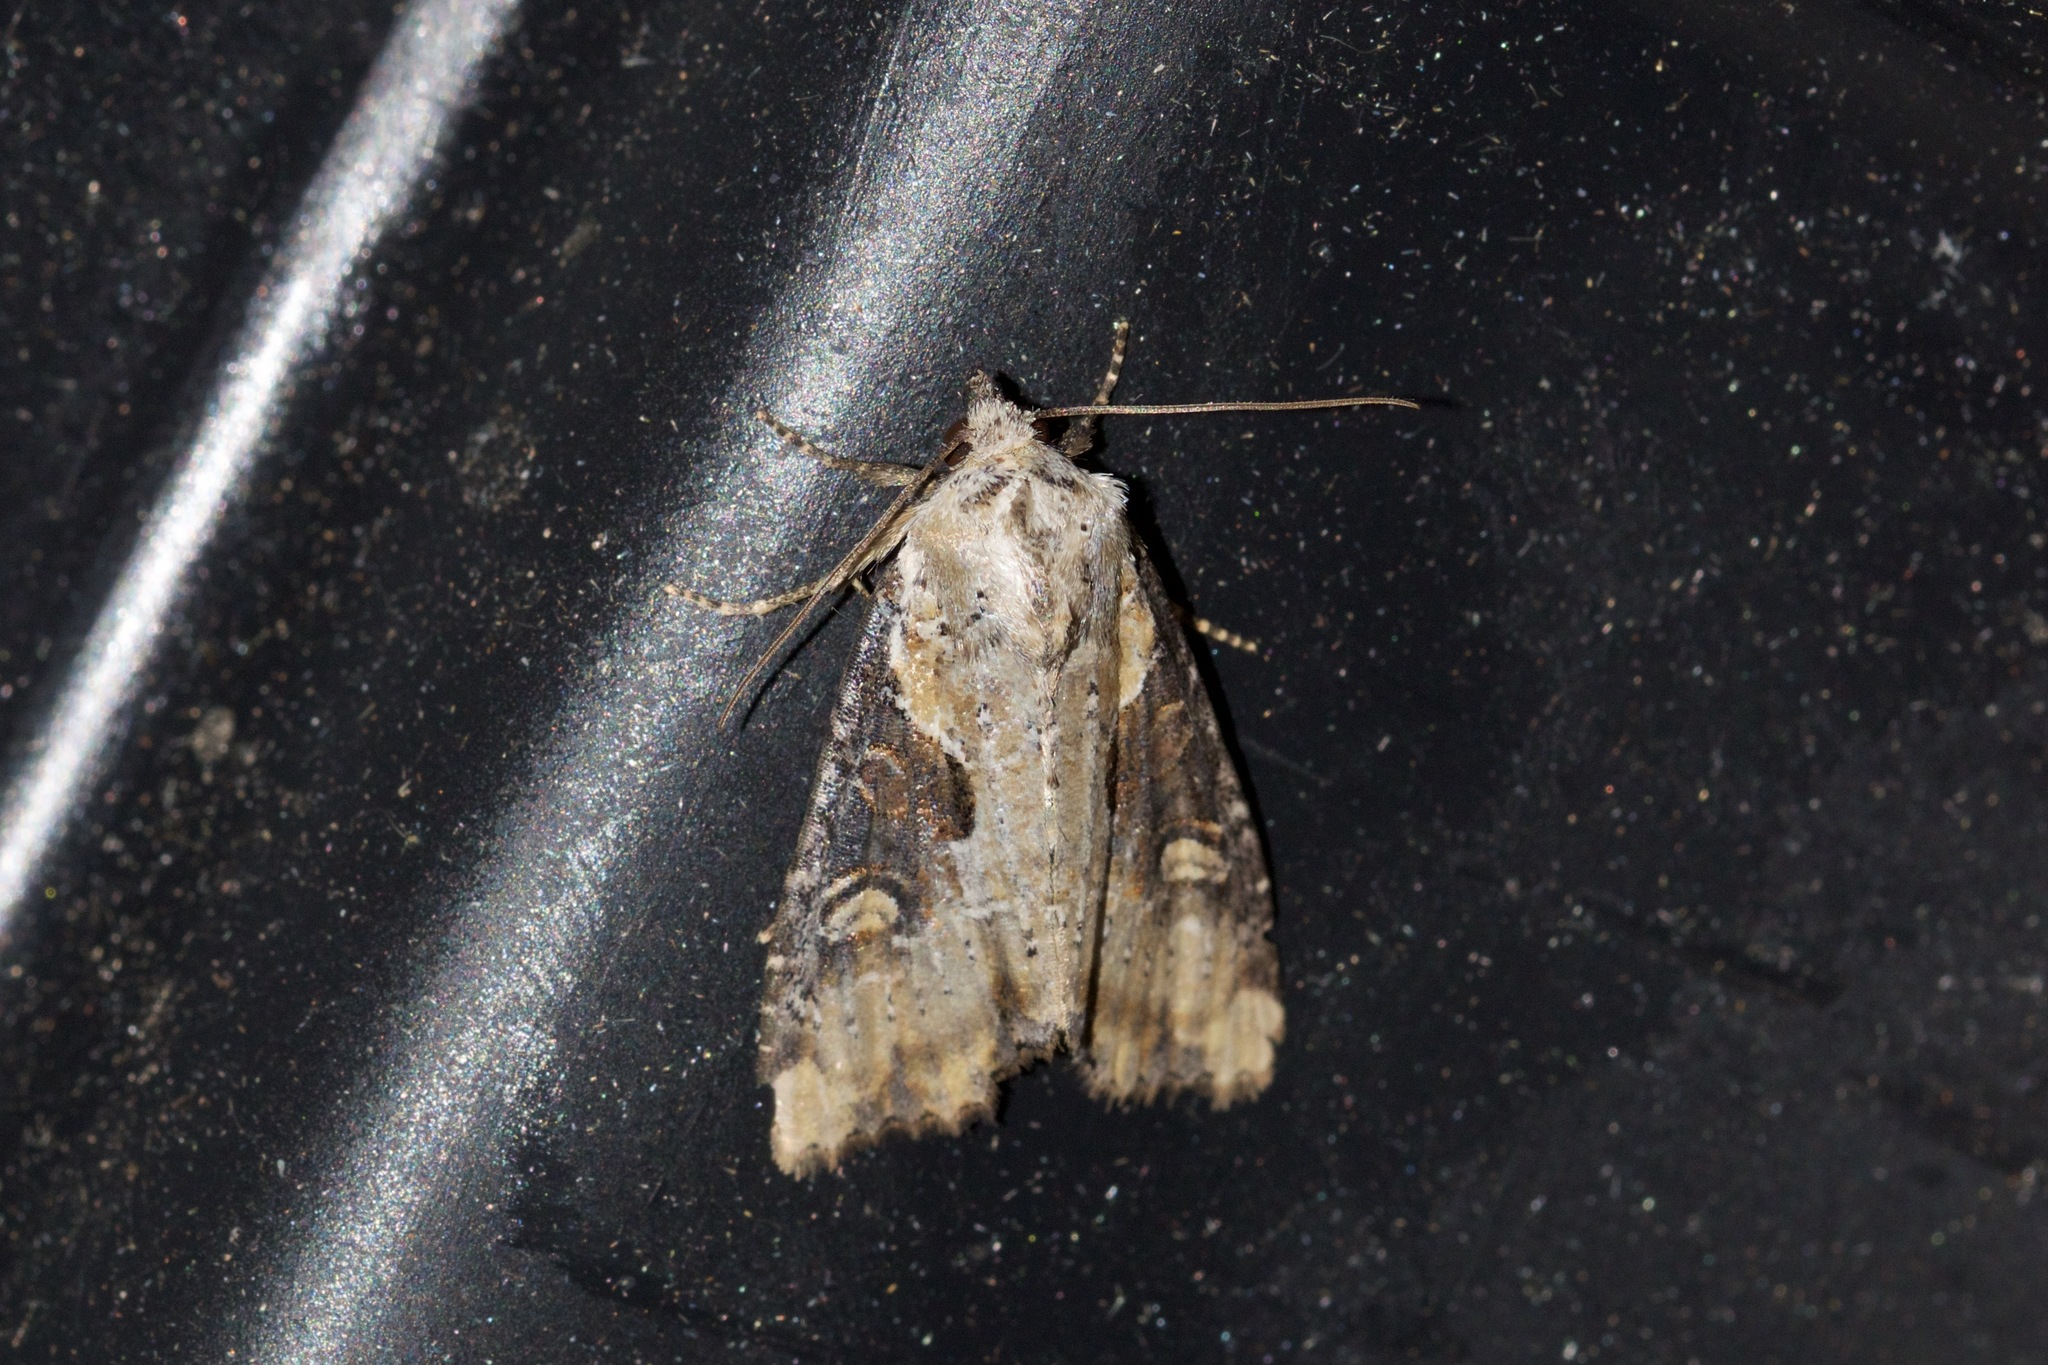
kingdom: Animalia
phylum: Arthropoda
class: Insecta
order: Lepidoptera
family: Noctuidae
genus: Lateroligia
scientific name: Lateroligia ophiogramma
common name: Double lobed
